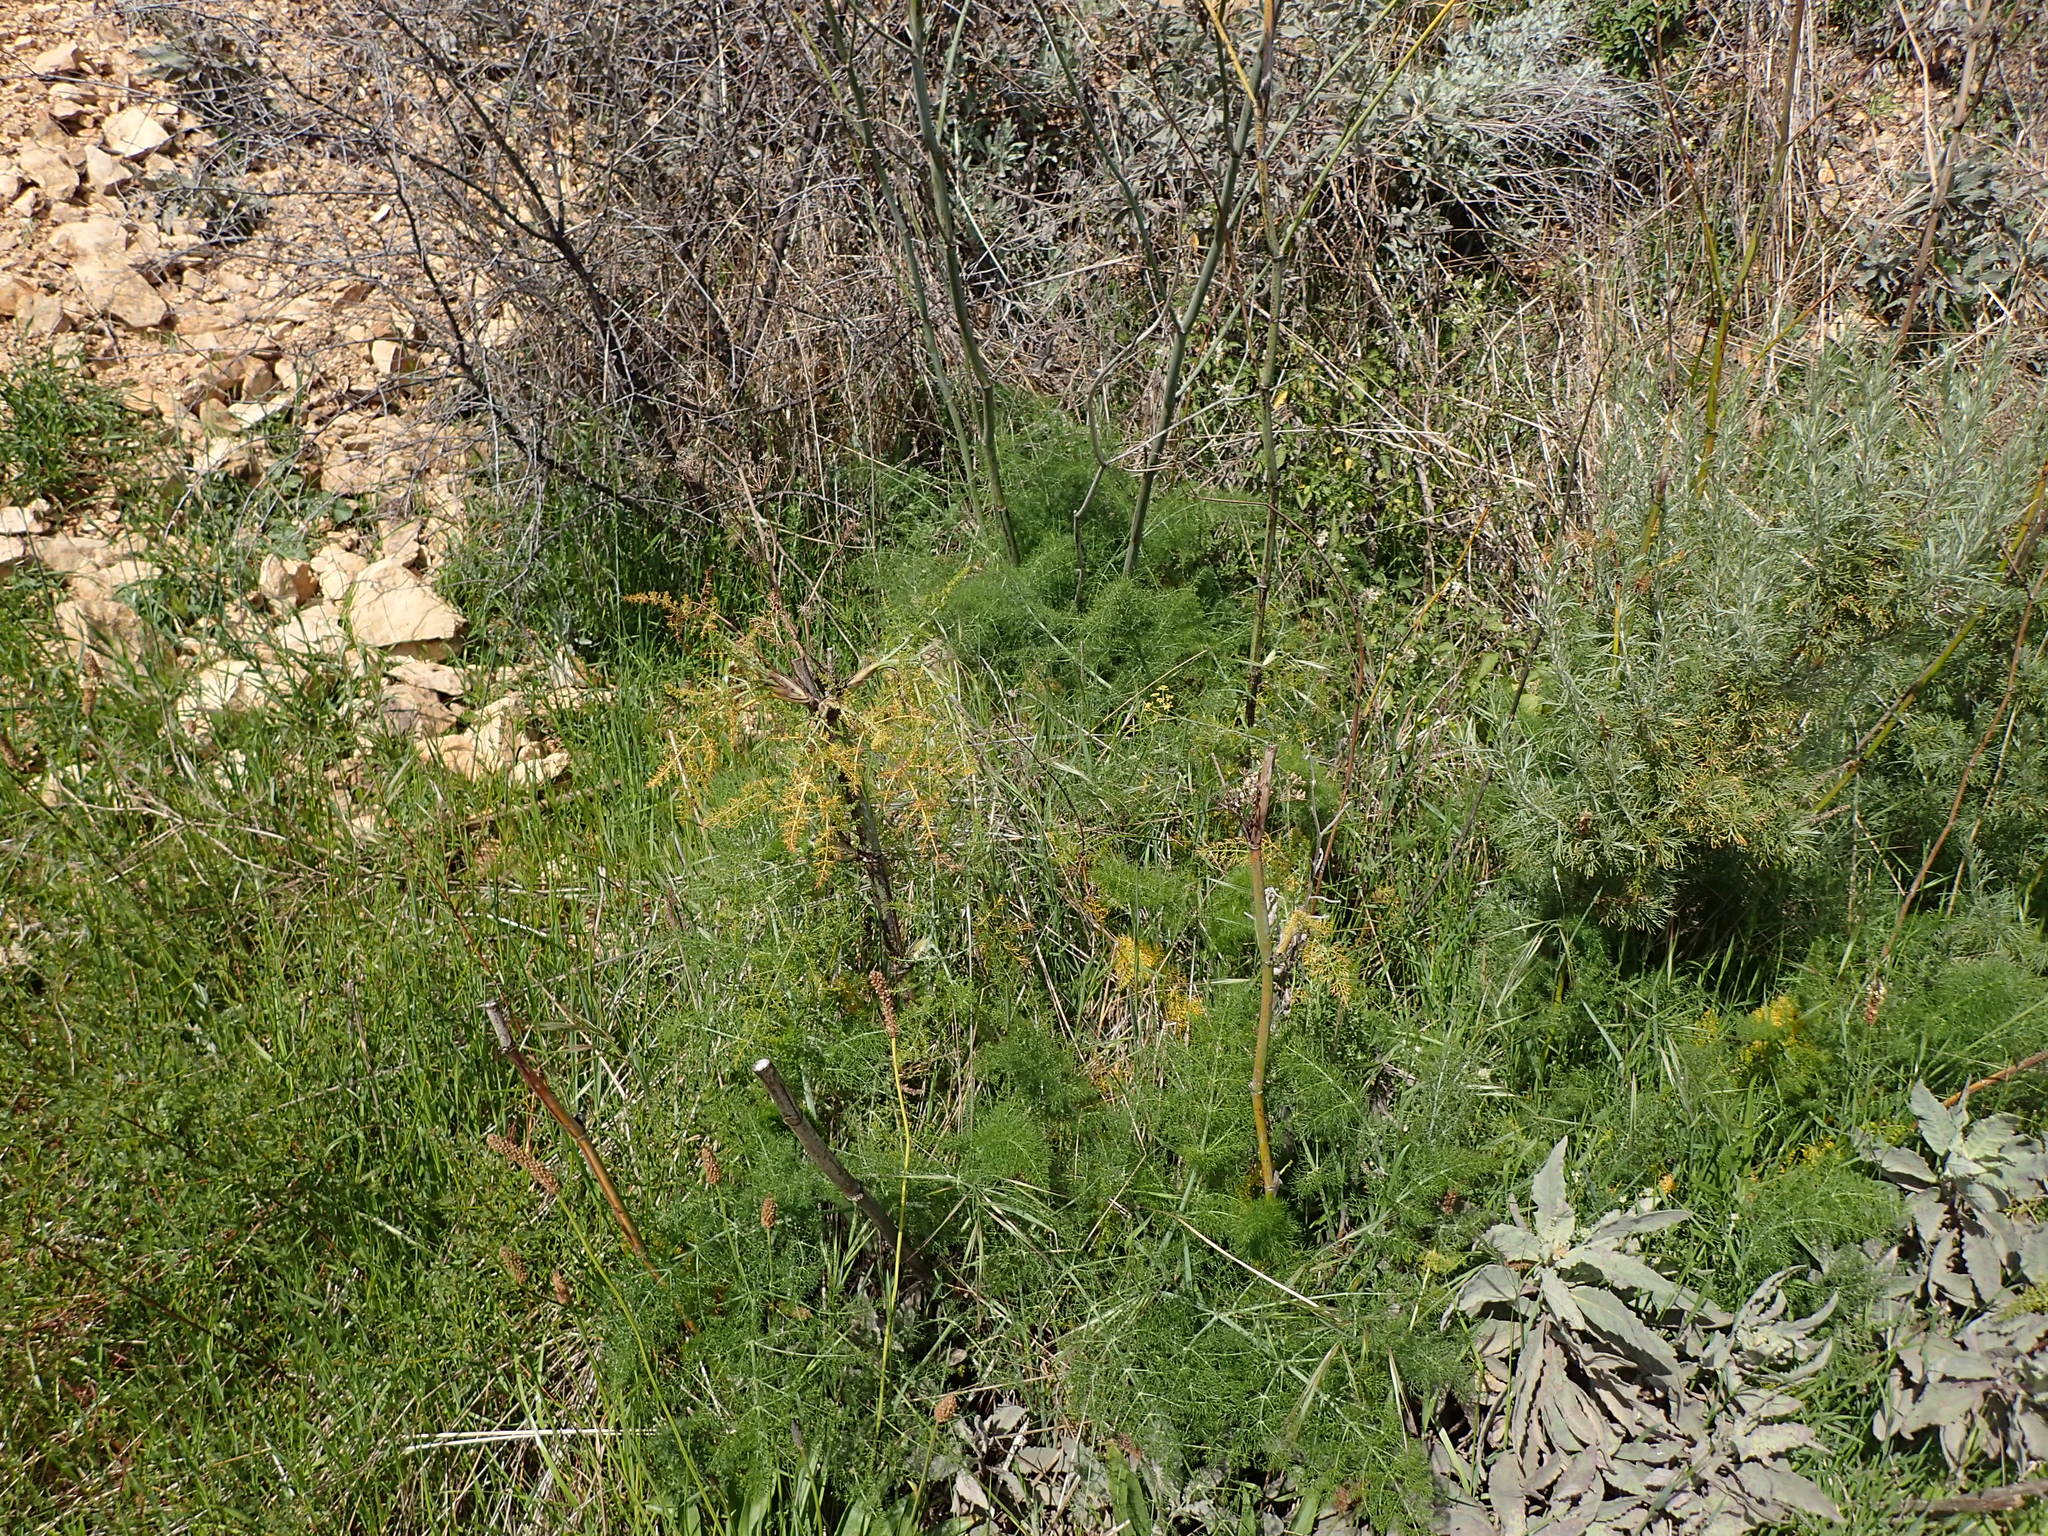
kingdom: Plantae
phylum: Tracheophyta
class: Magnoliopsida
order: Apiales
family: Apiaceae
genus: Foeniculum
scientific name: Foeniculum vulgare
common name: Fennel
